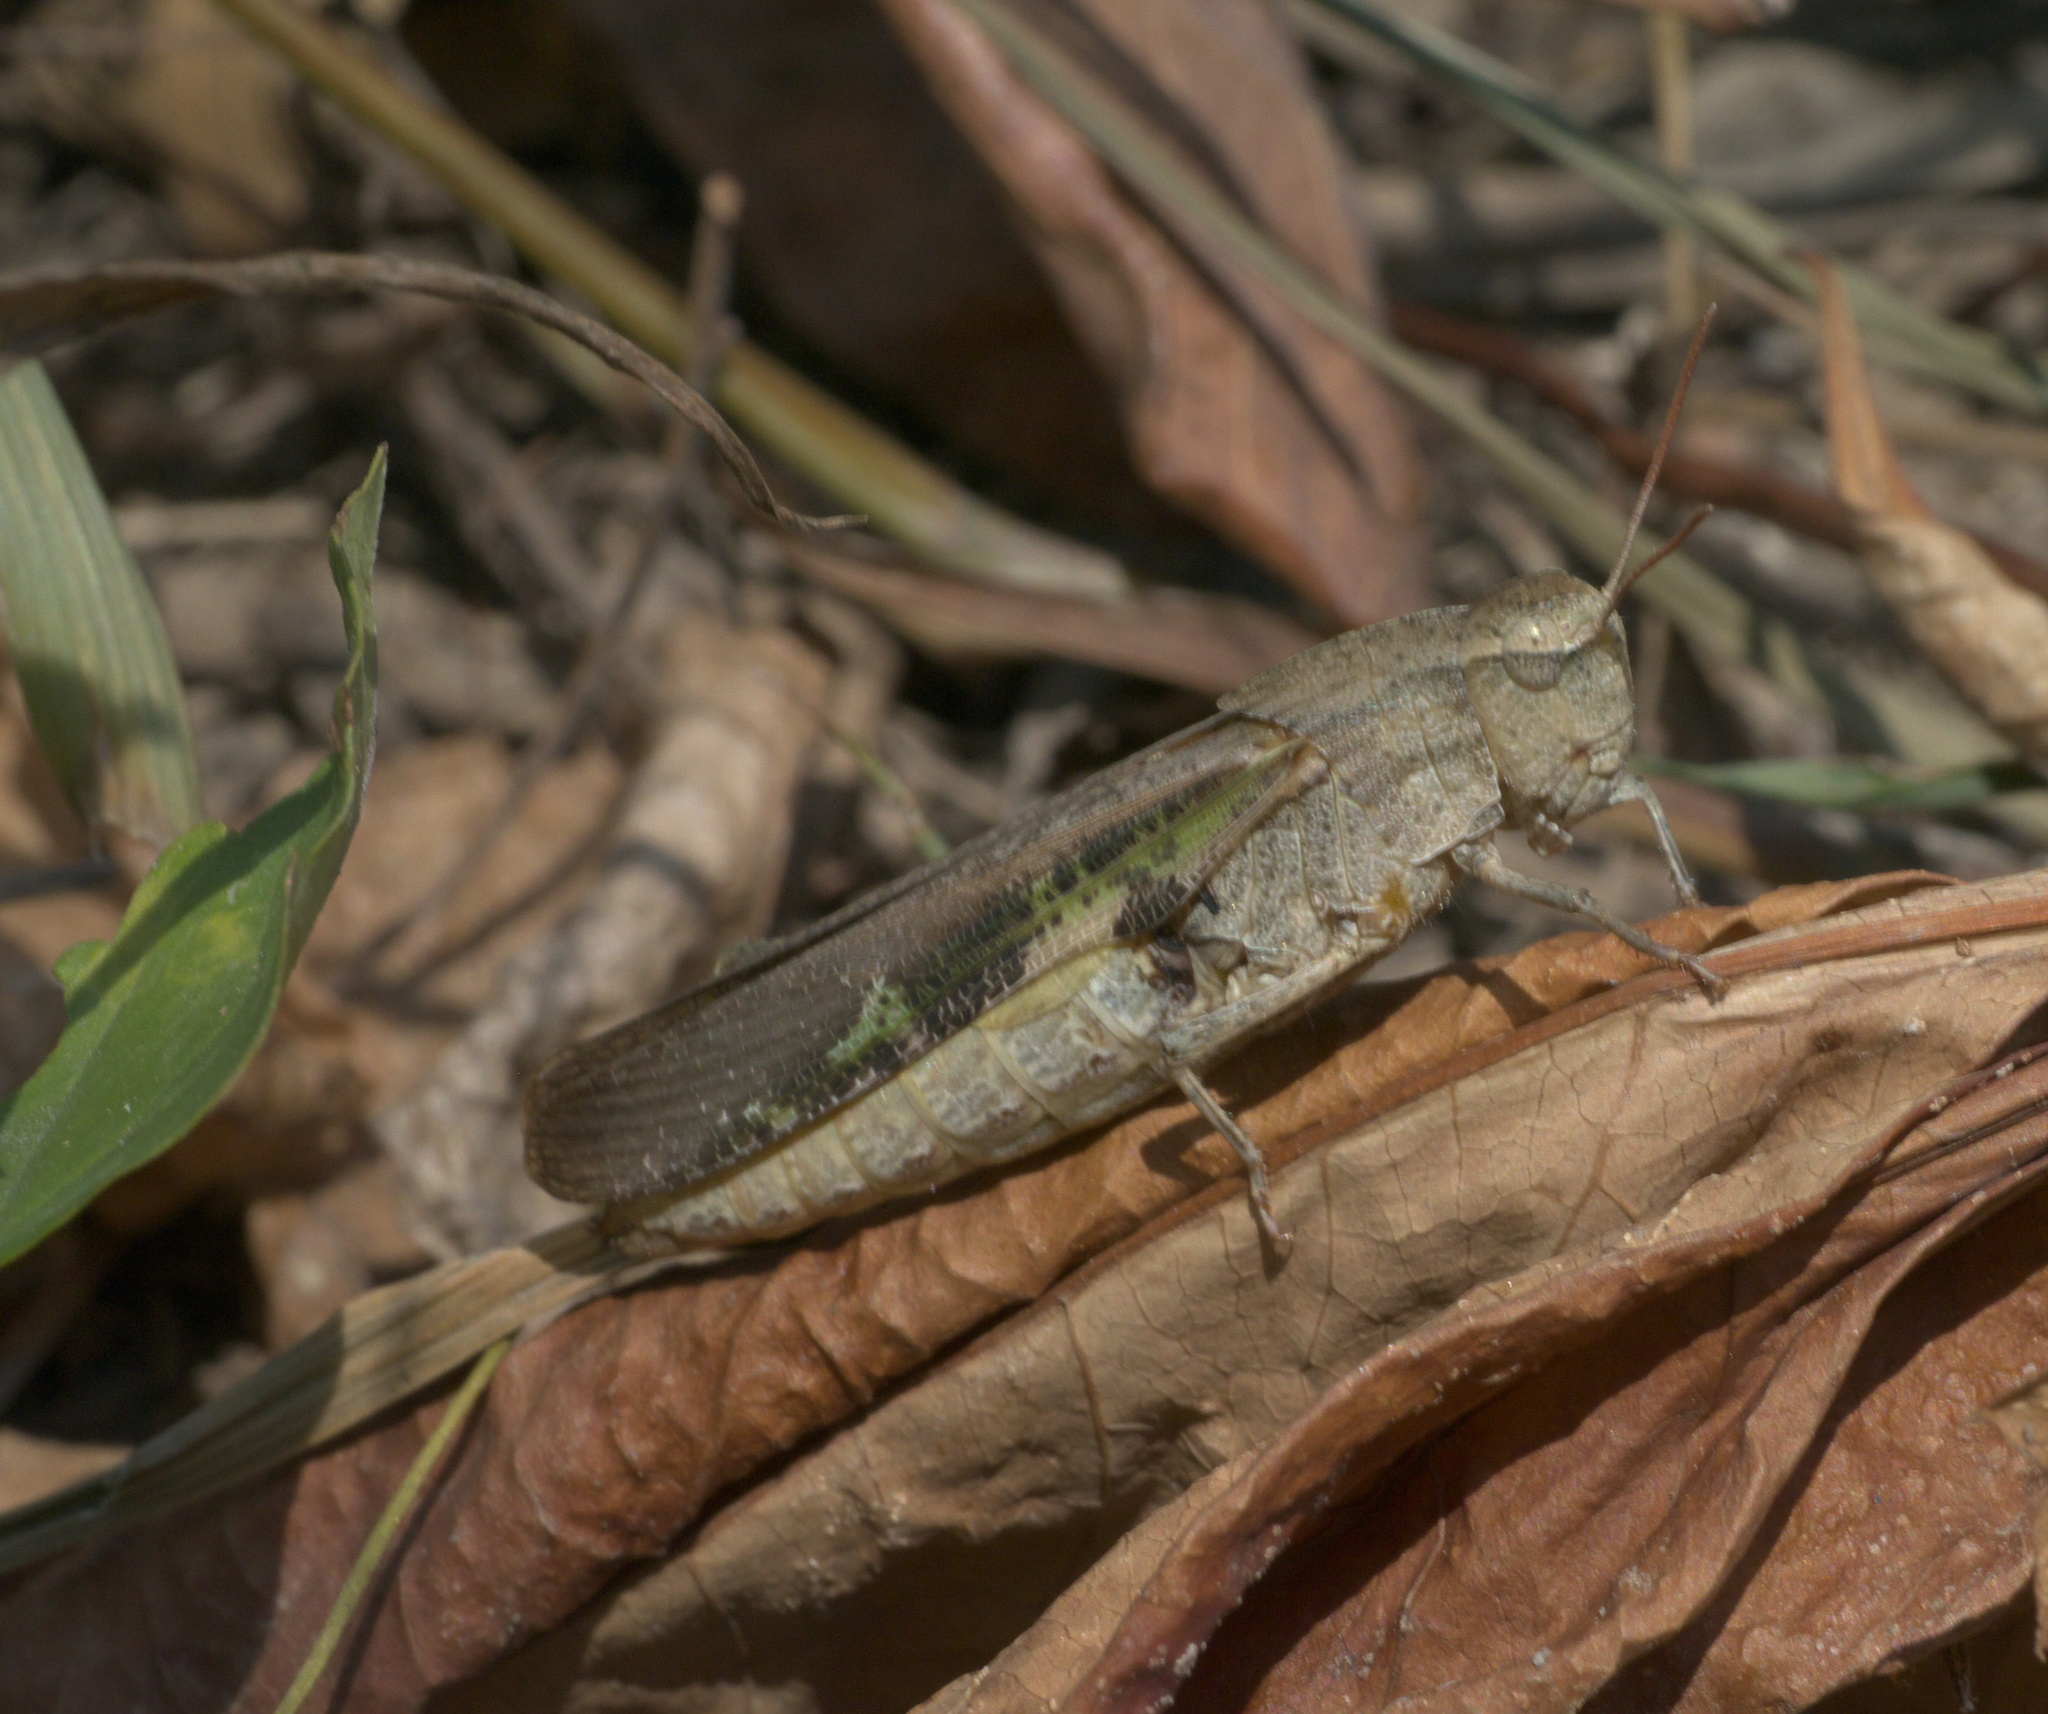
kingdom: Animalia
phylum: Arthropoda
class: Insecta
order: Orthoptera
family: Acrididae
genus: Chortophaga
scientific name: Chortophaga viridifasciata
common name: Green-striped grasshopper
